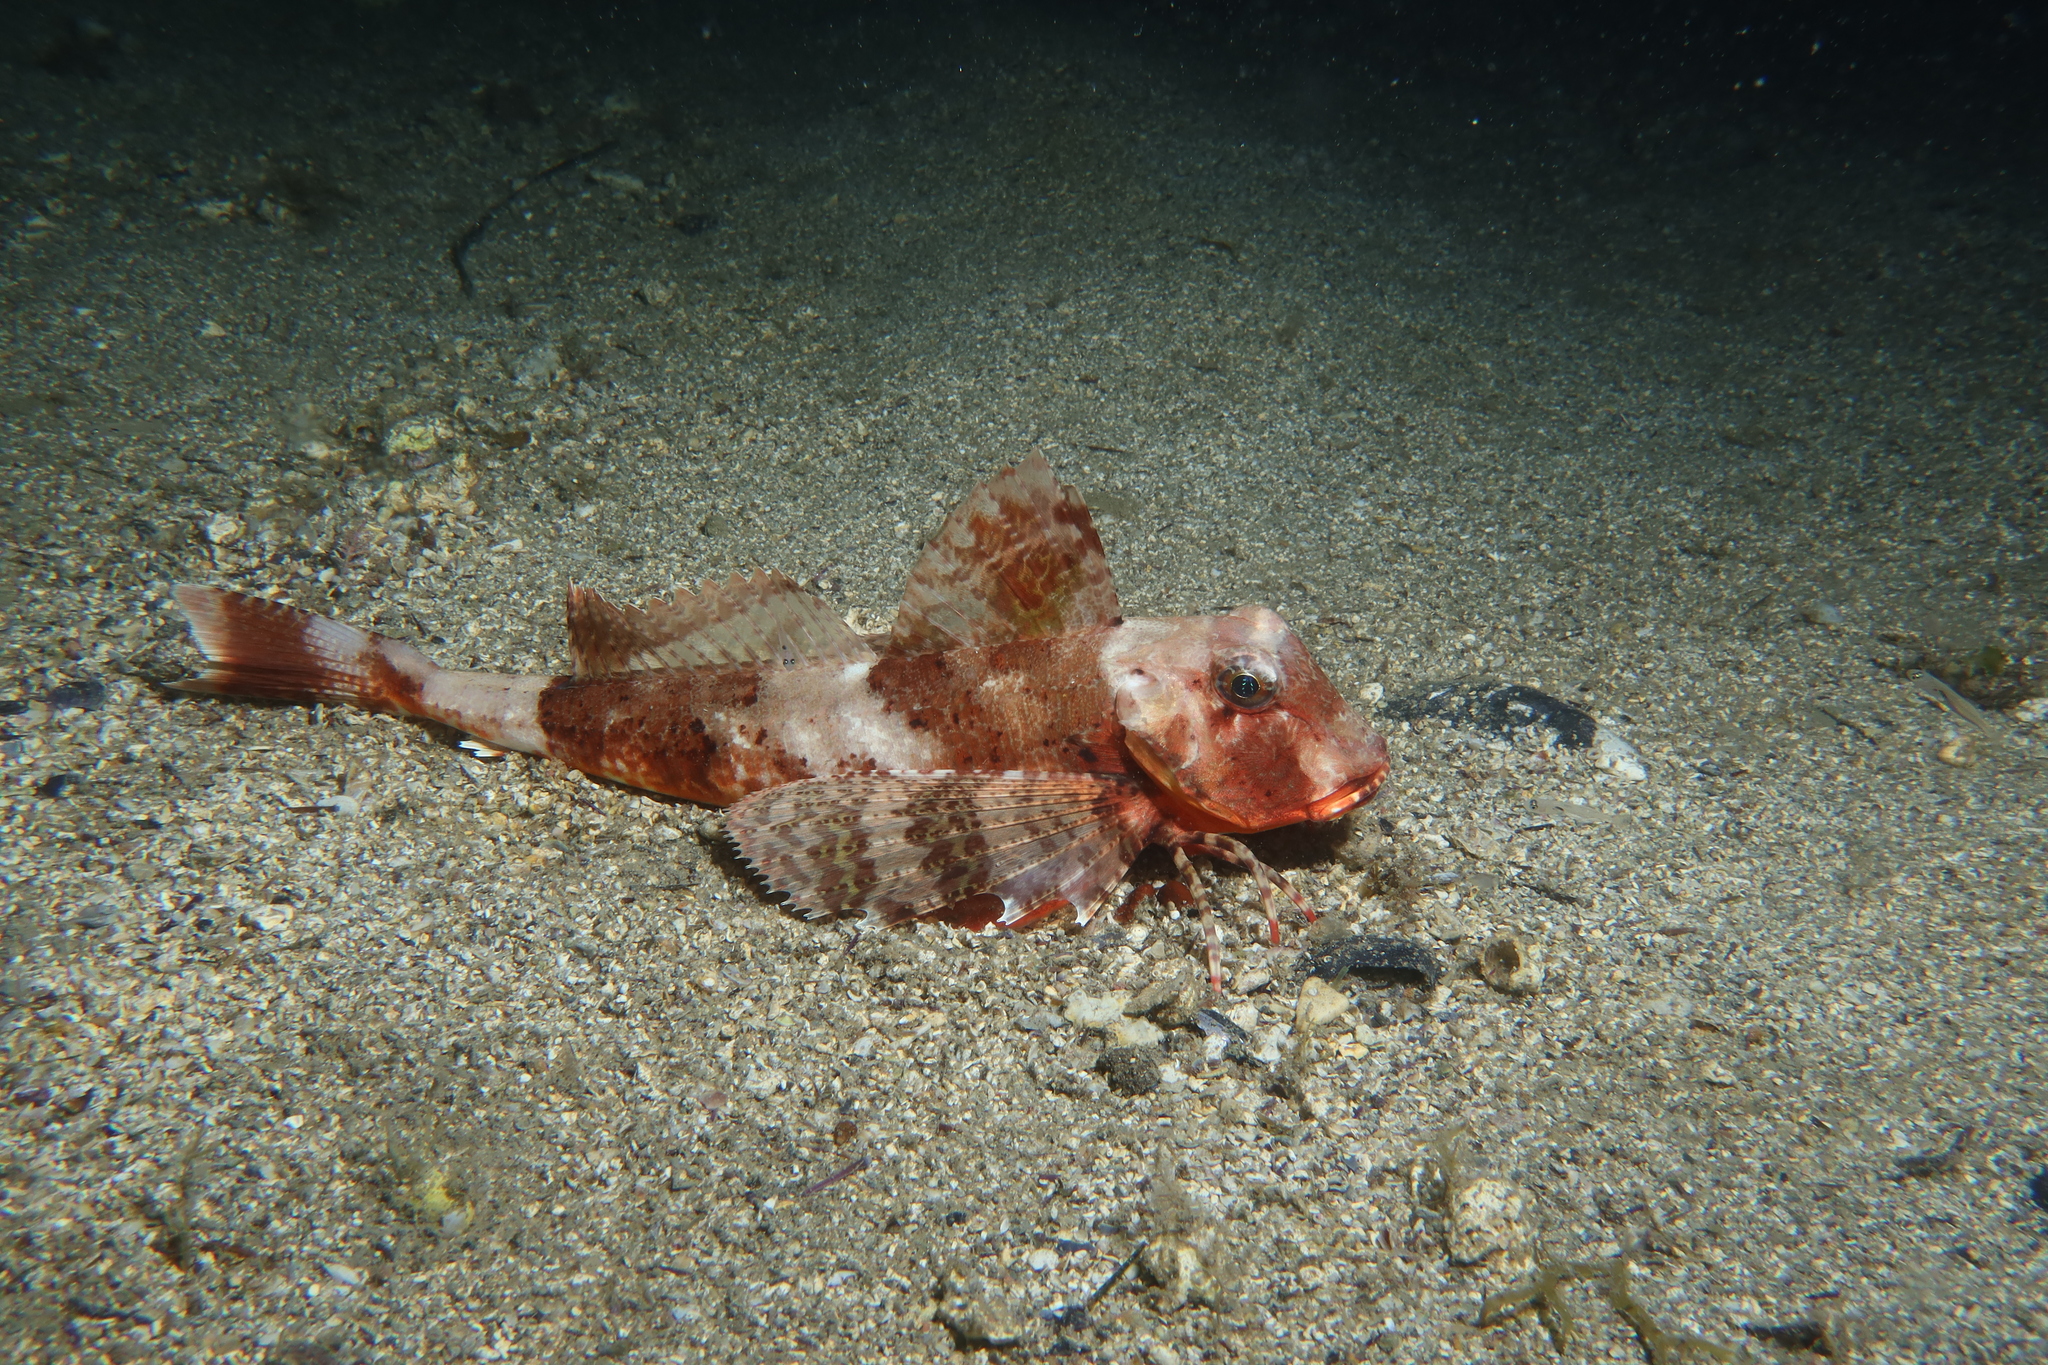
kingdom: Animalia
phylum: Chordata
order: Scorpaeniformes
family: Triglidae
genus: Chelidonichthys
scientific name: Chelidonichthys lastoviza
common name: Streaked gurnard
